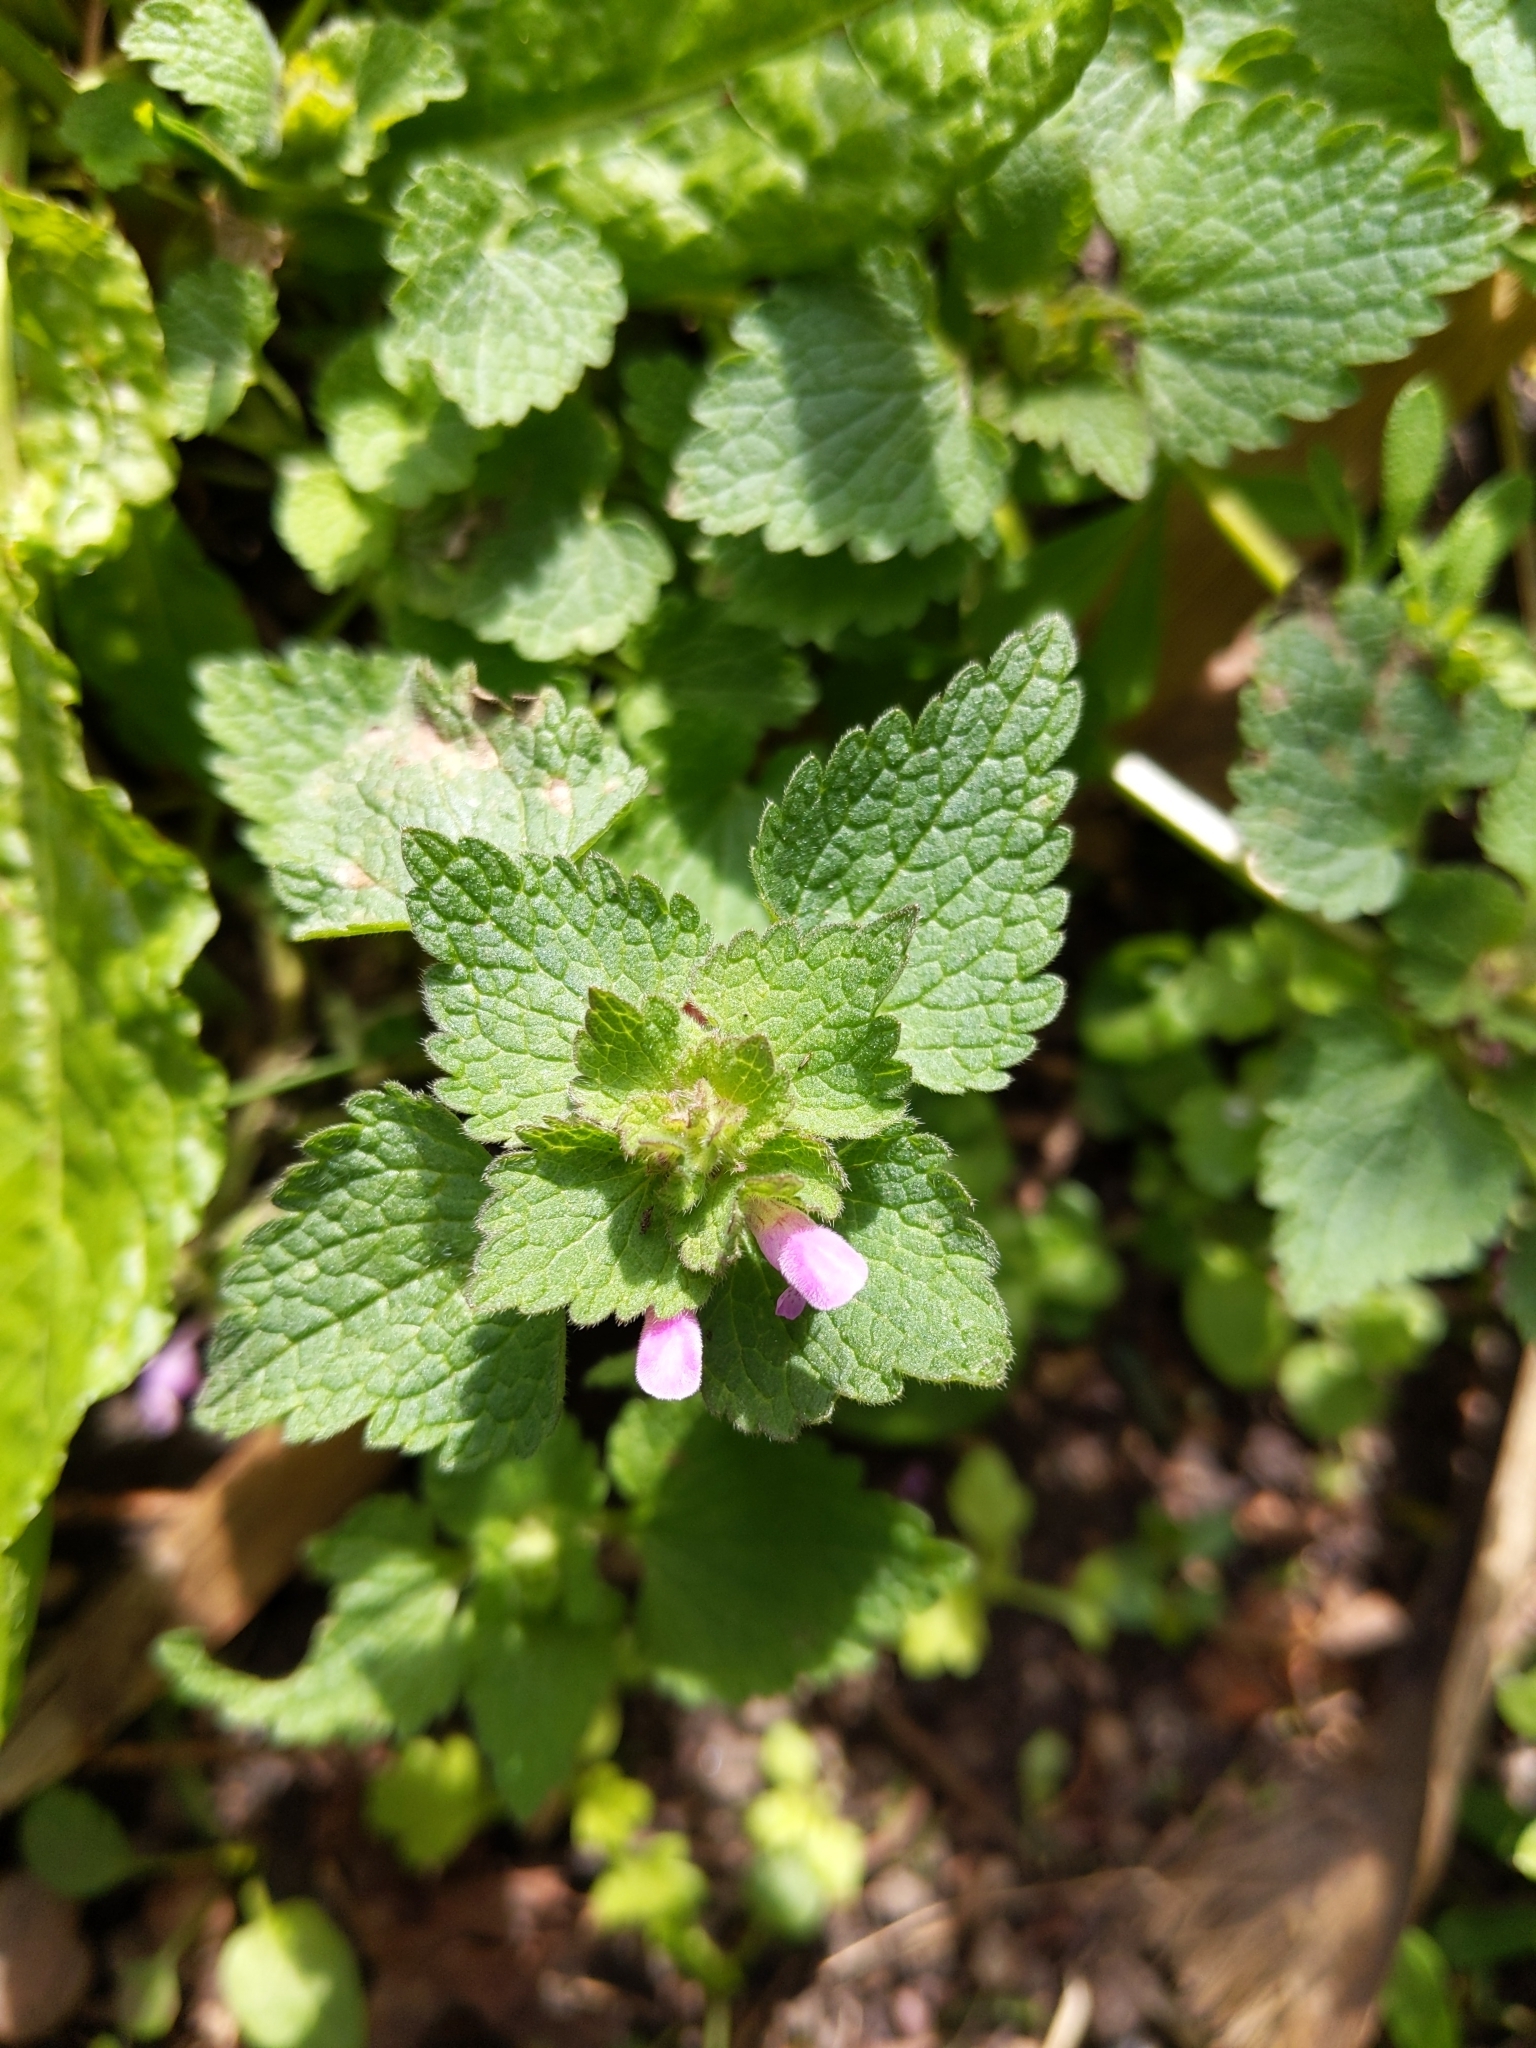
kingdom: Plantae
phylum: Tracheophyta
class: Magnoliopsida
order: Lamiales
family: Lamiaceae
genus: Lamium
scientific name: Lamium purpureum
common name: Red dead-nettle
